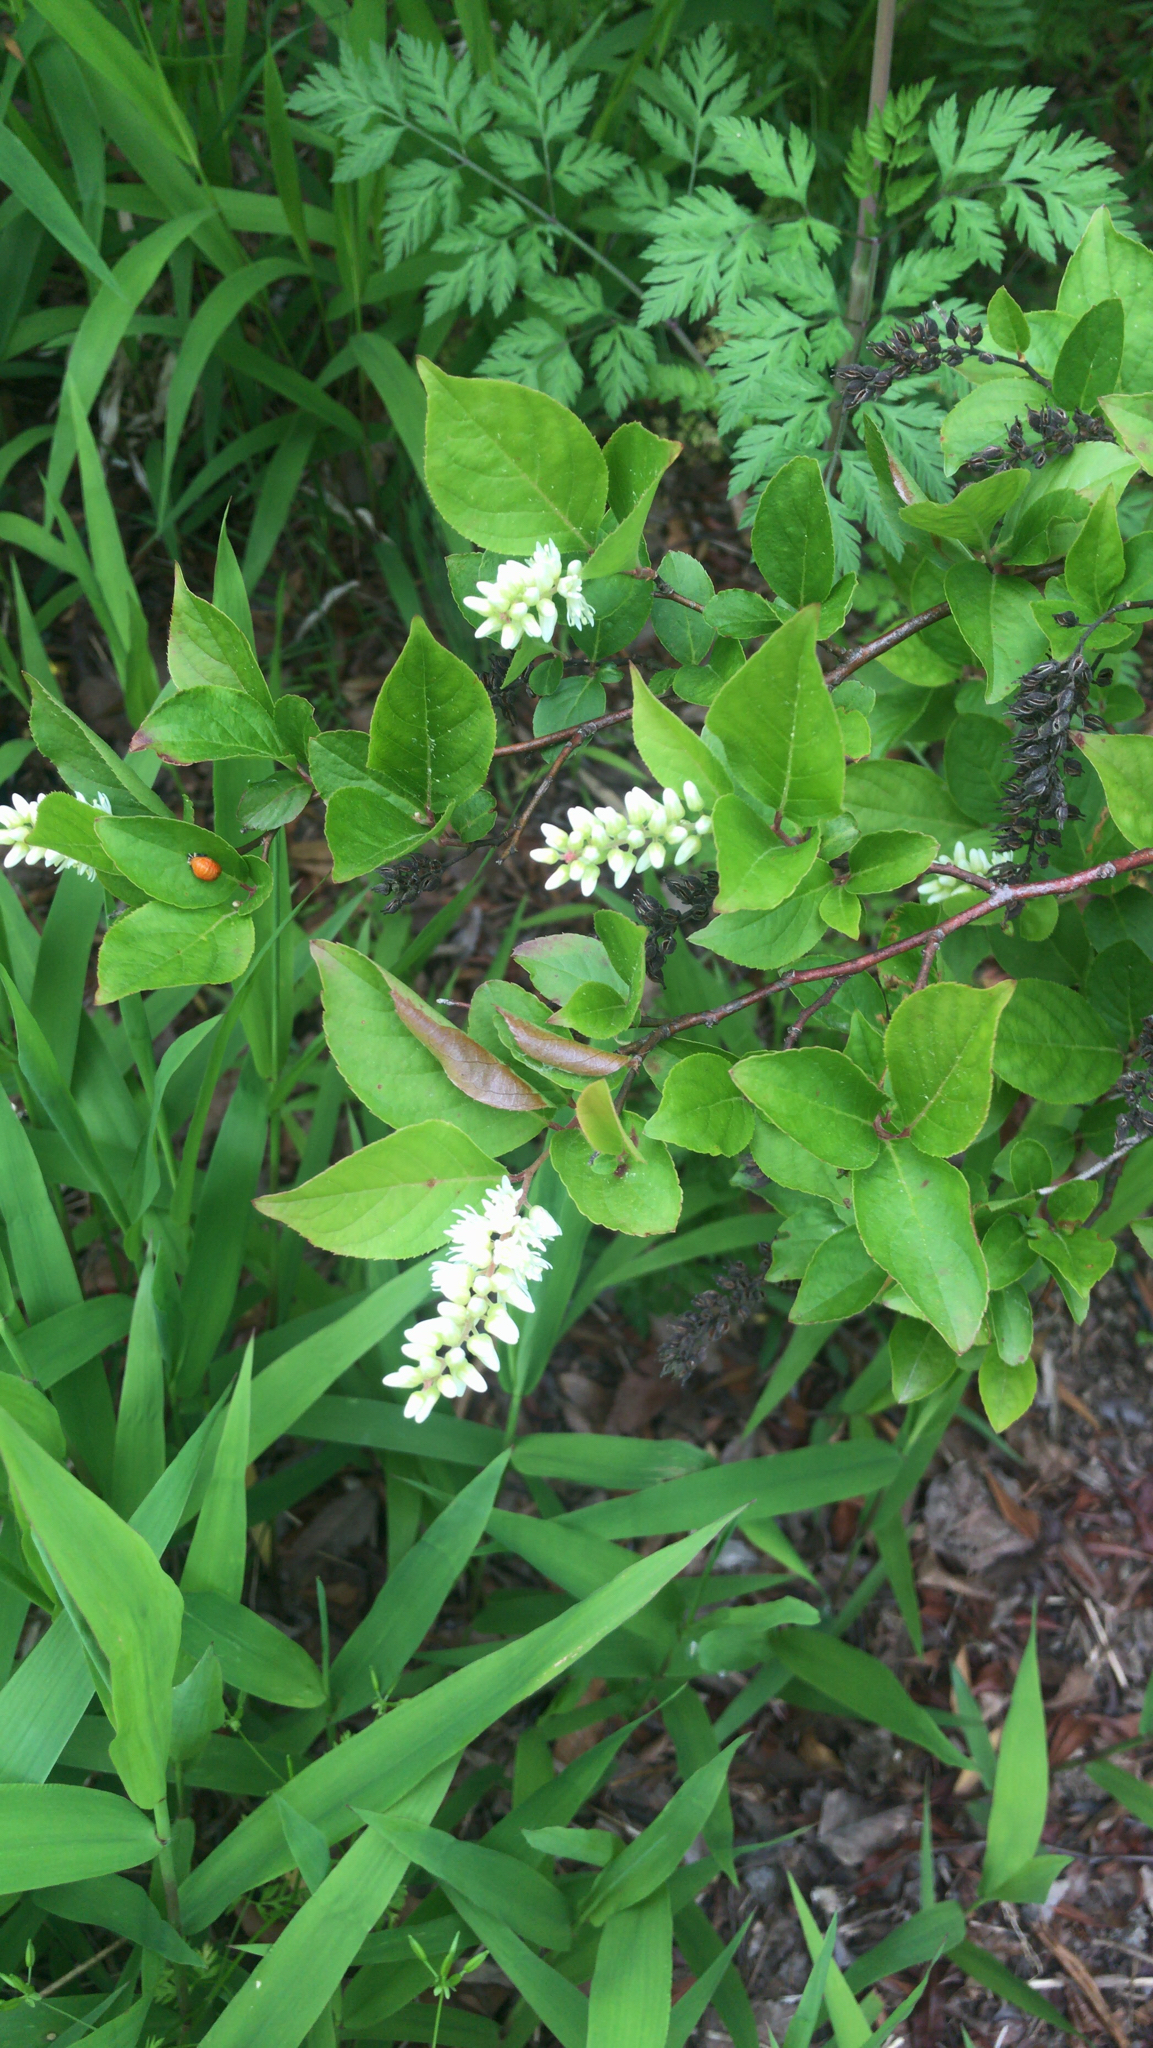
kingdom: Plantae
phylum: Tracheophyta
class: Magnoliopsida
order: Saxifragales
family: Iteaceae
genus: Itea
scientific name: Itea virginica
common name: Sweetspire
